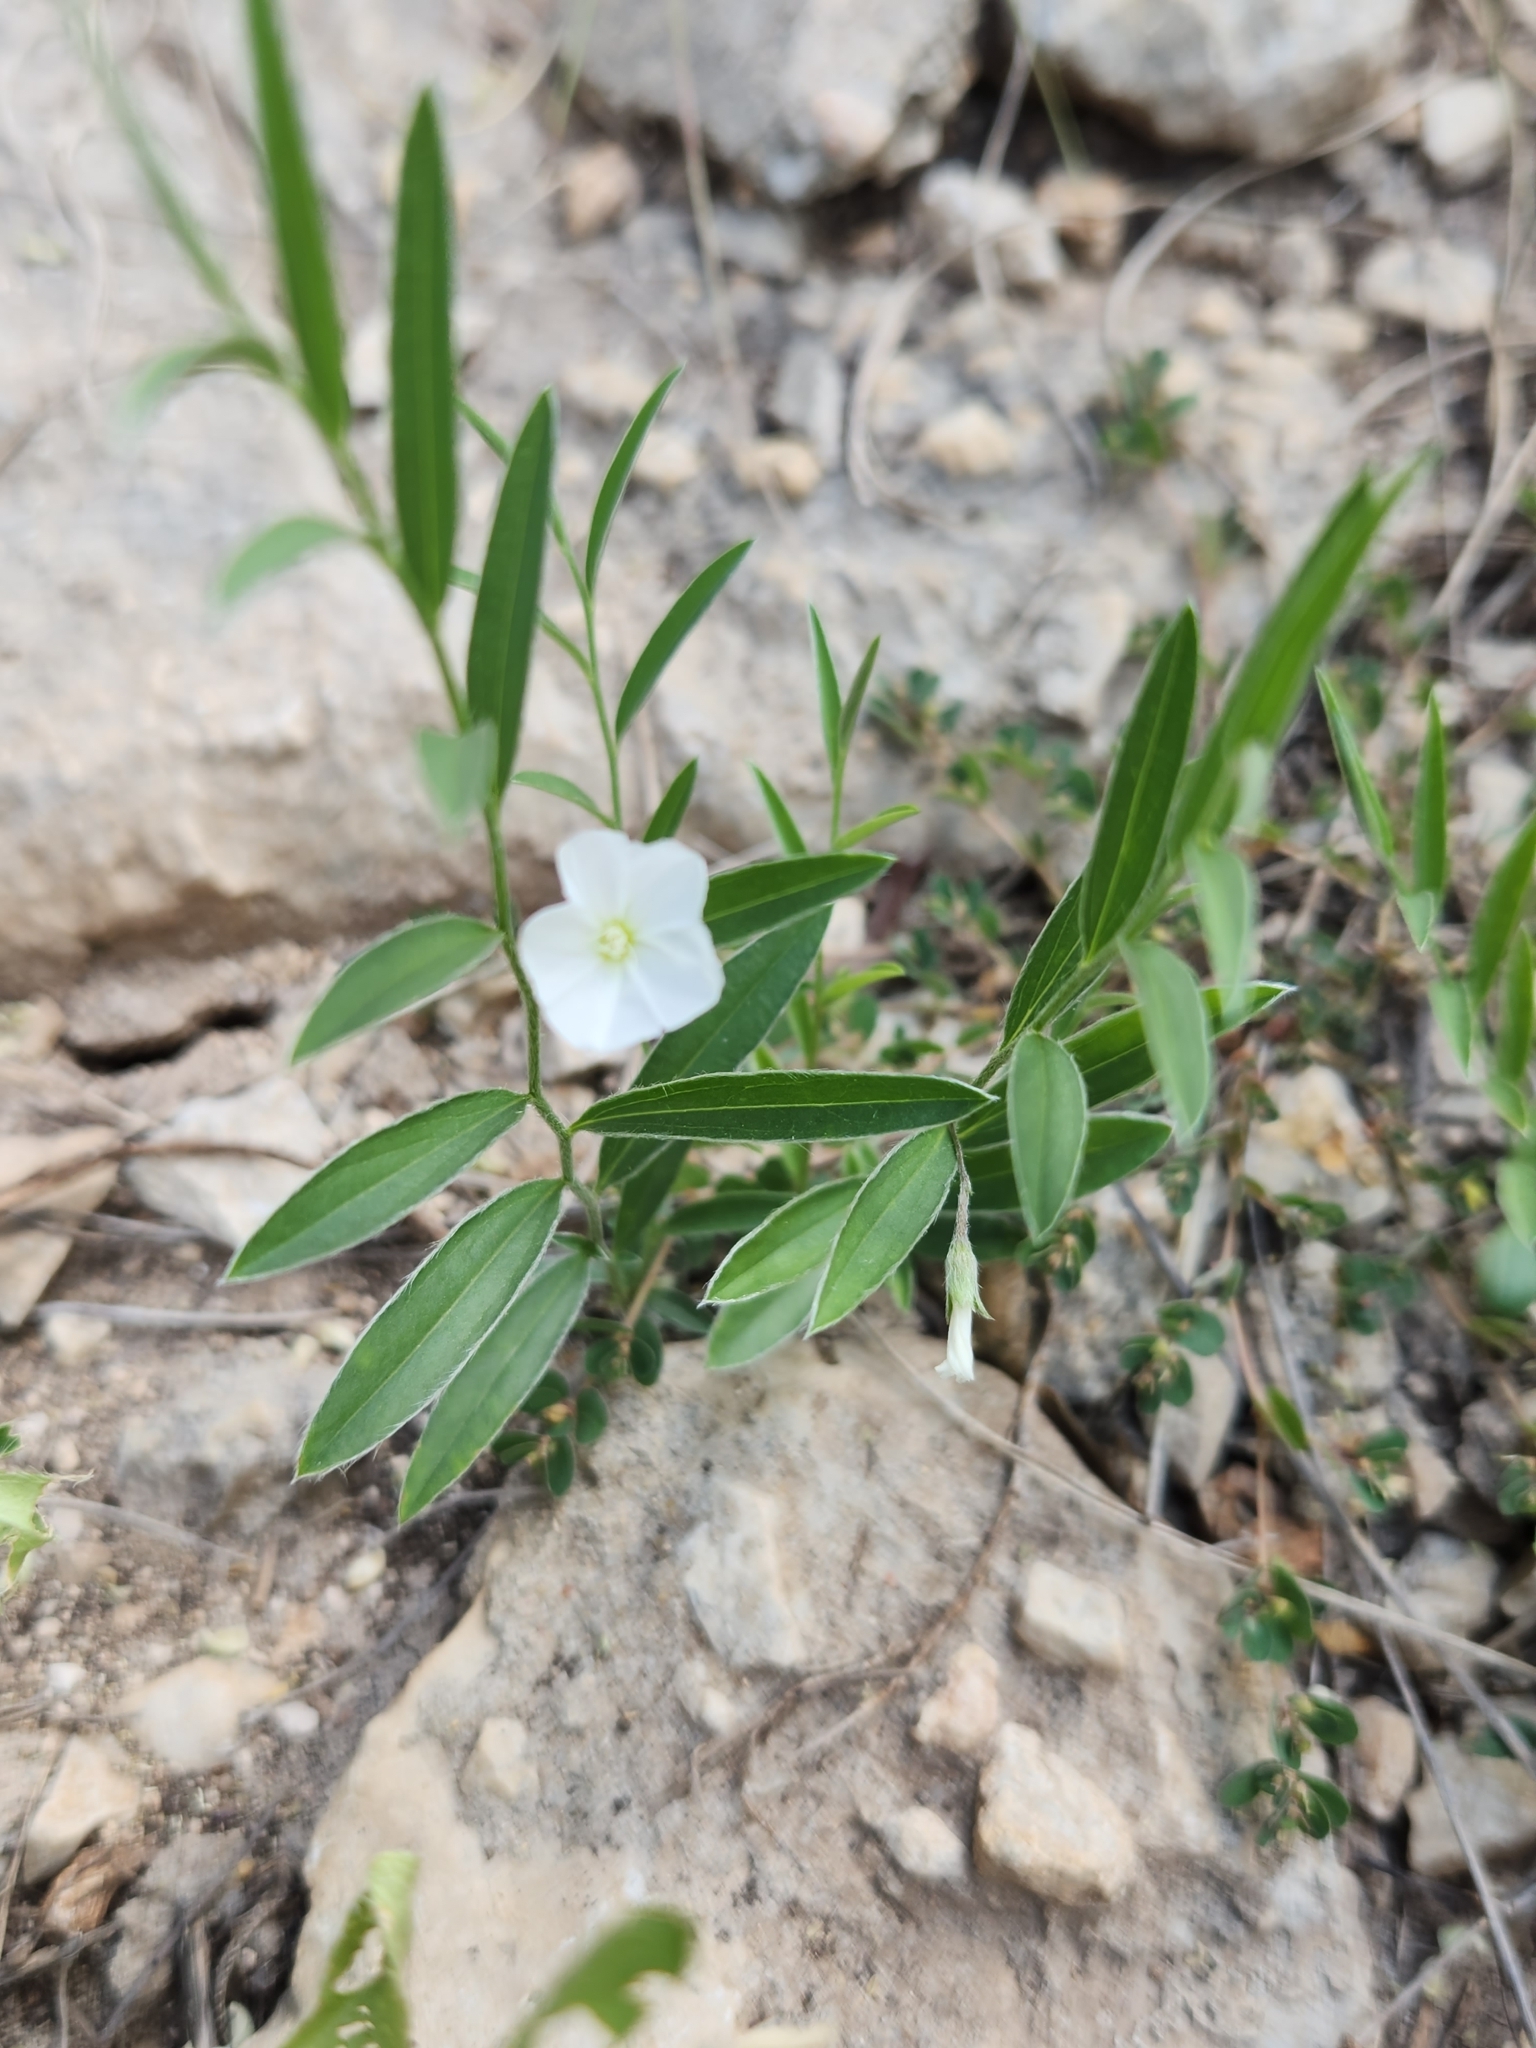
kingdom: Plantae
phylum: Tracheophyta
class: Magnoliopsida
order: Solanales
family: Convolvulaceae
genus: Evolvulus
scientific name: Evolvulus sericeus
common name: Blue dots
